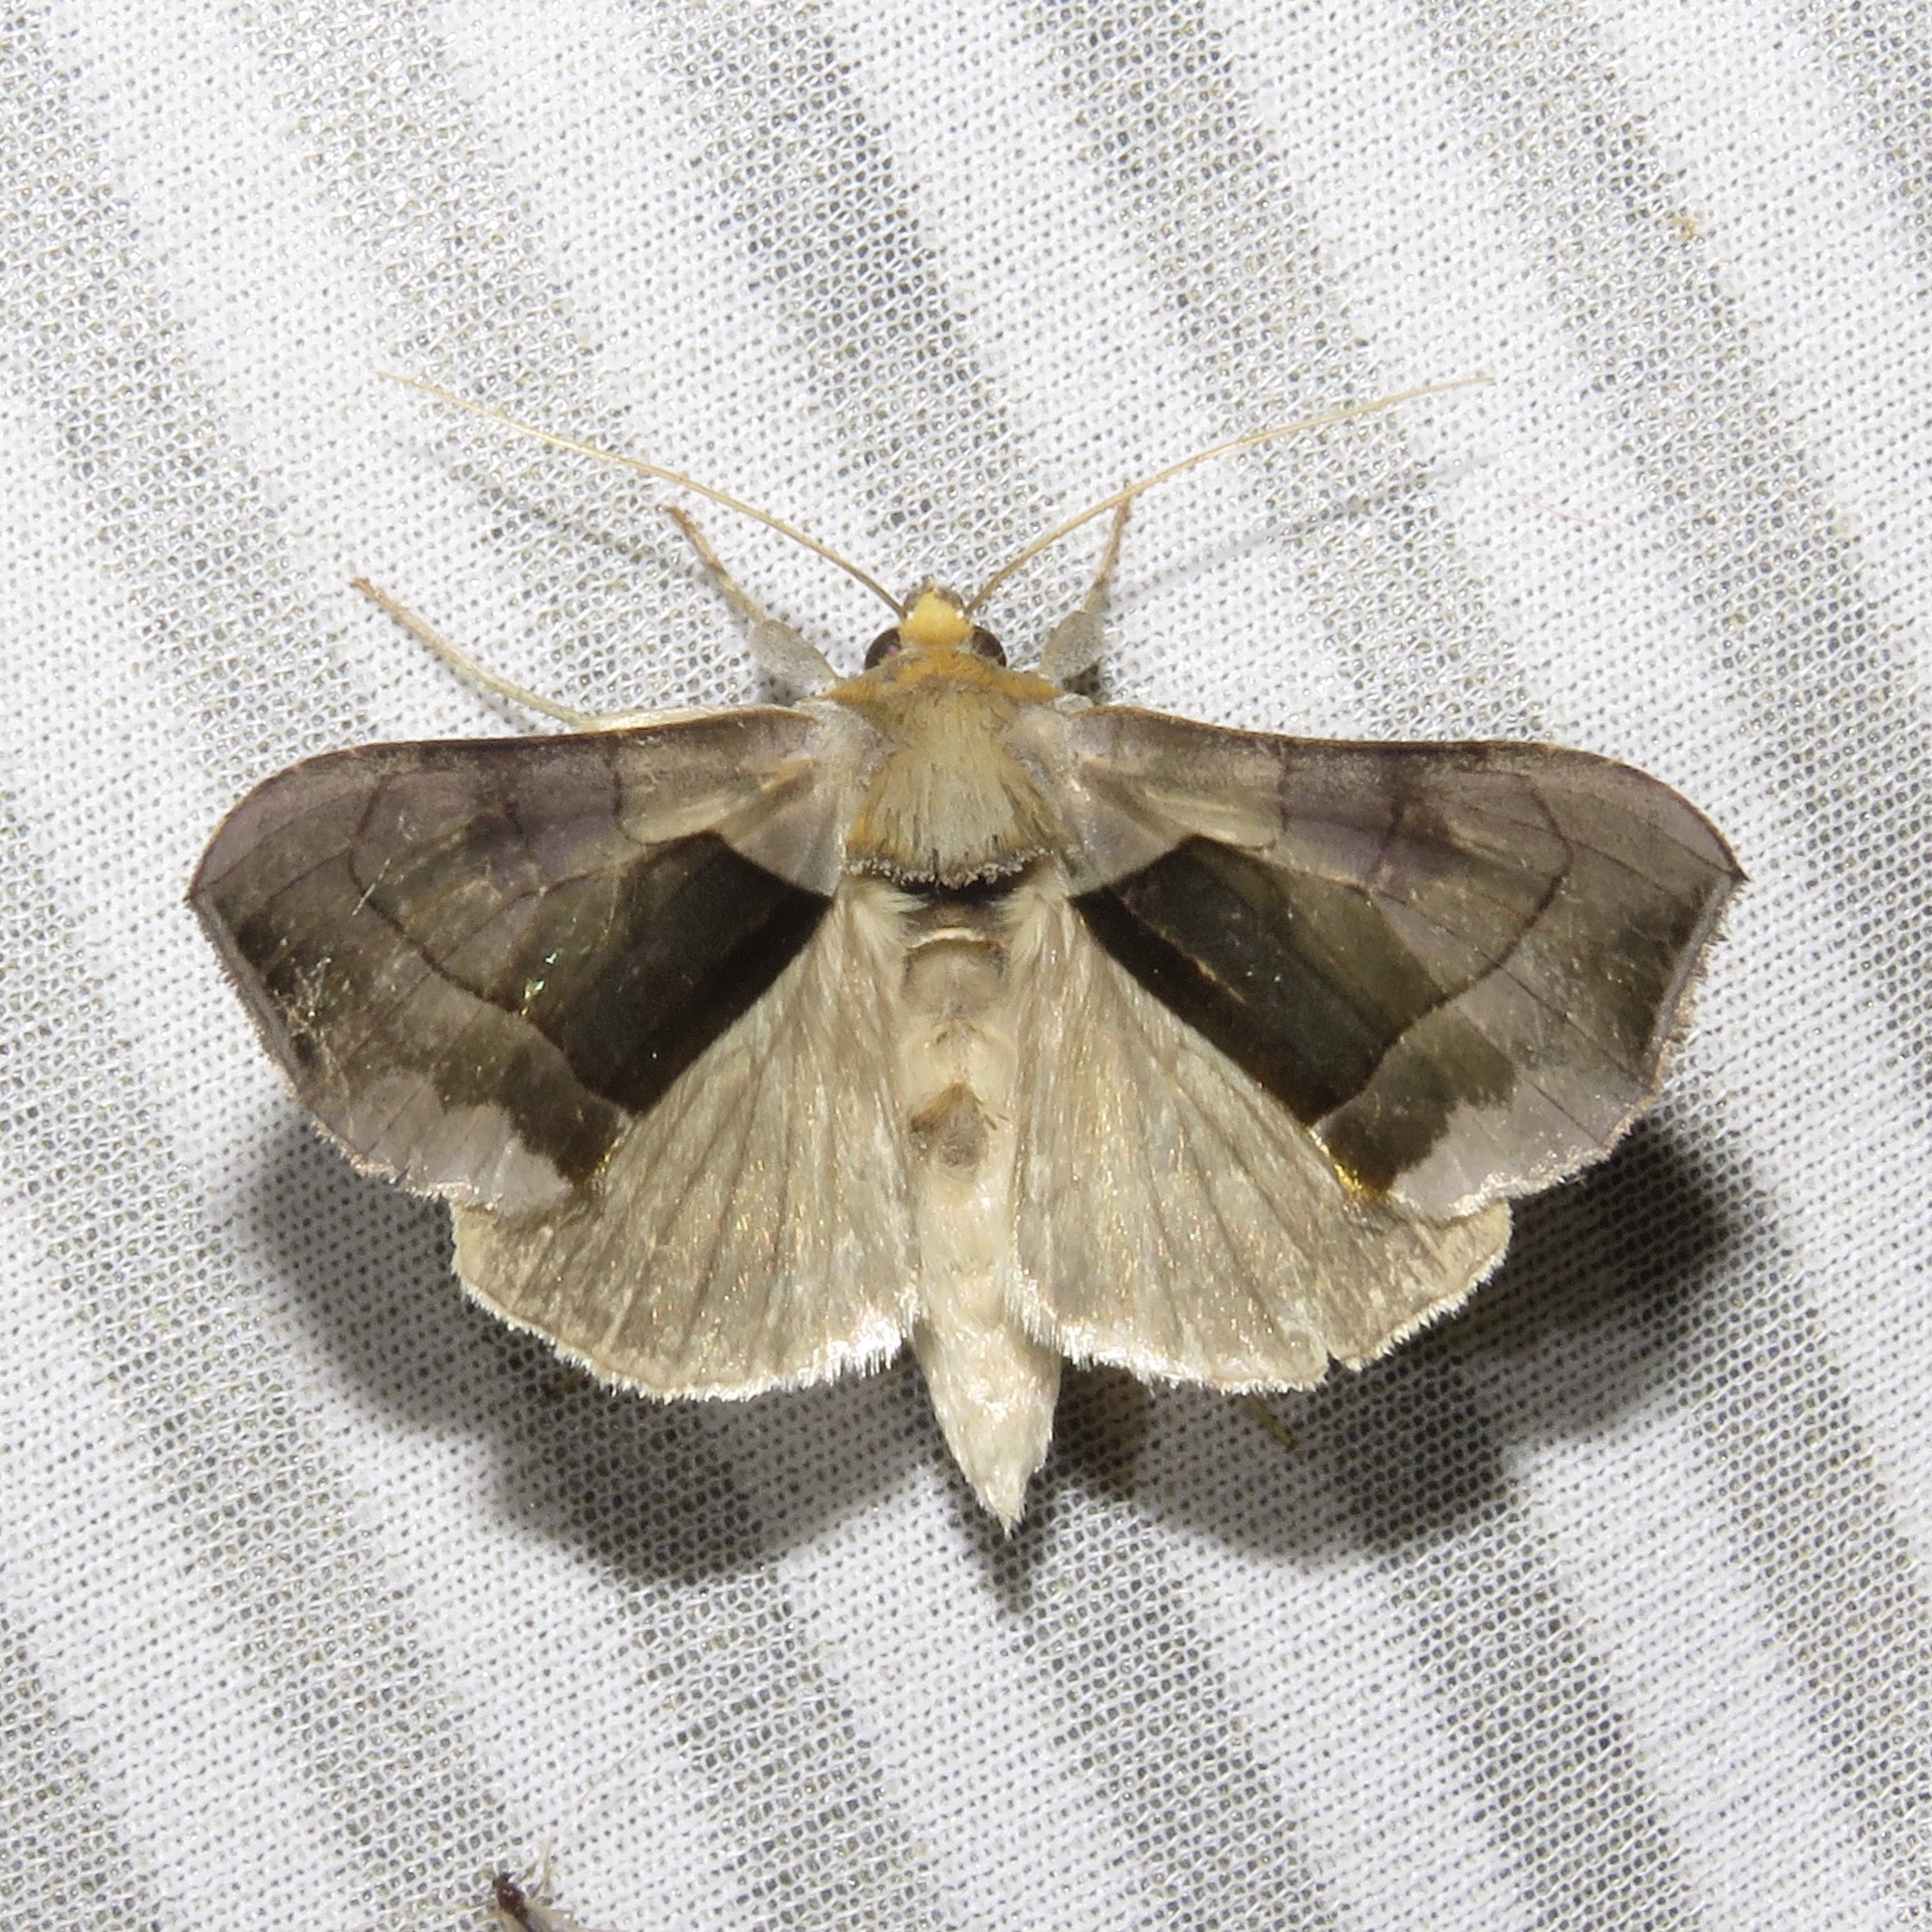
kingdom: Animalia
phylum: Arthropoda
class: Insecta
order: Lepidoptera
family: Noctuidae
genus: Diachrysia
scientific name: Diachrysia balluca
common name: Green-patched looper moth
